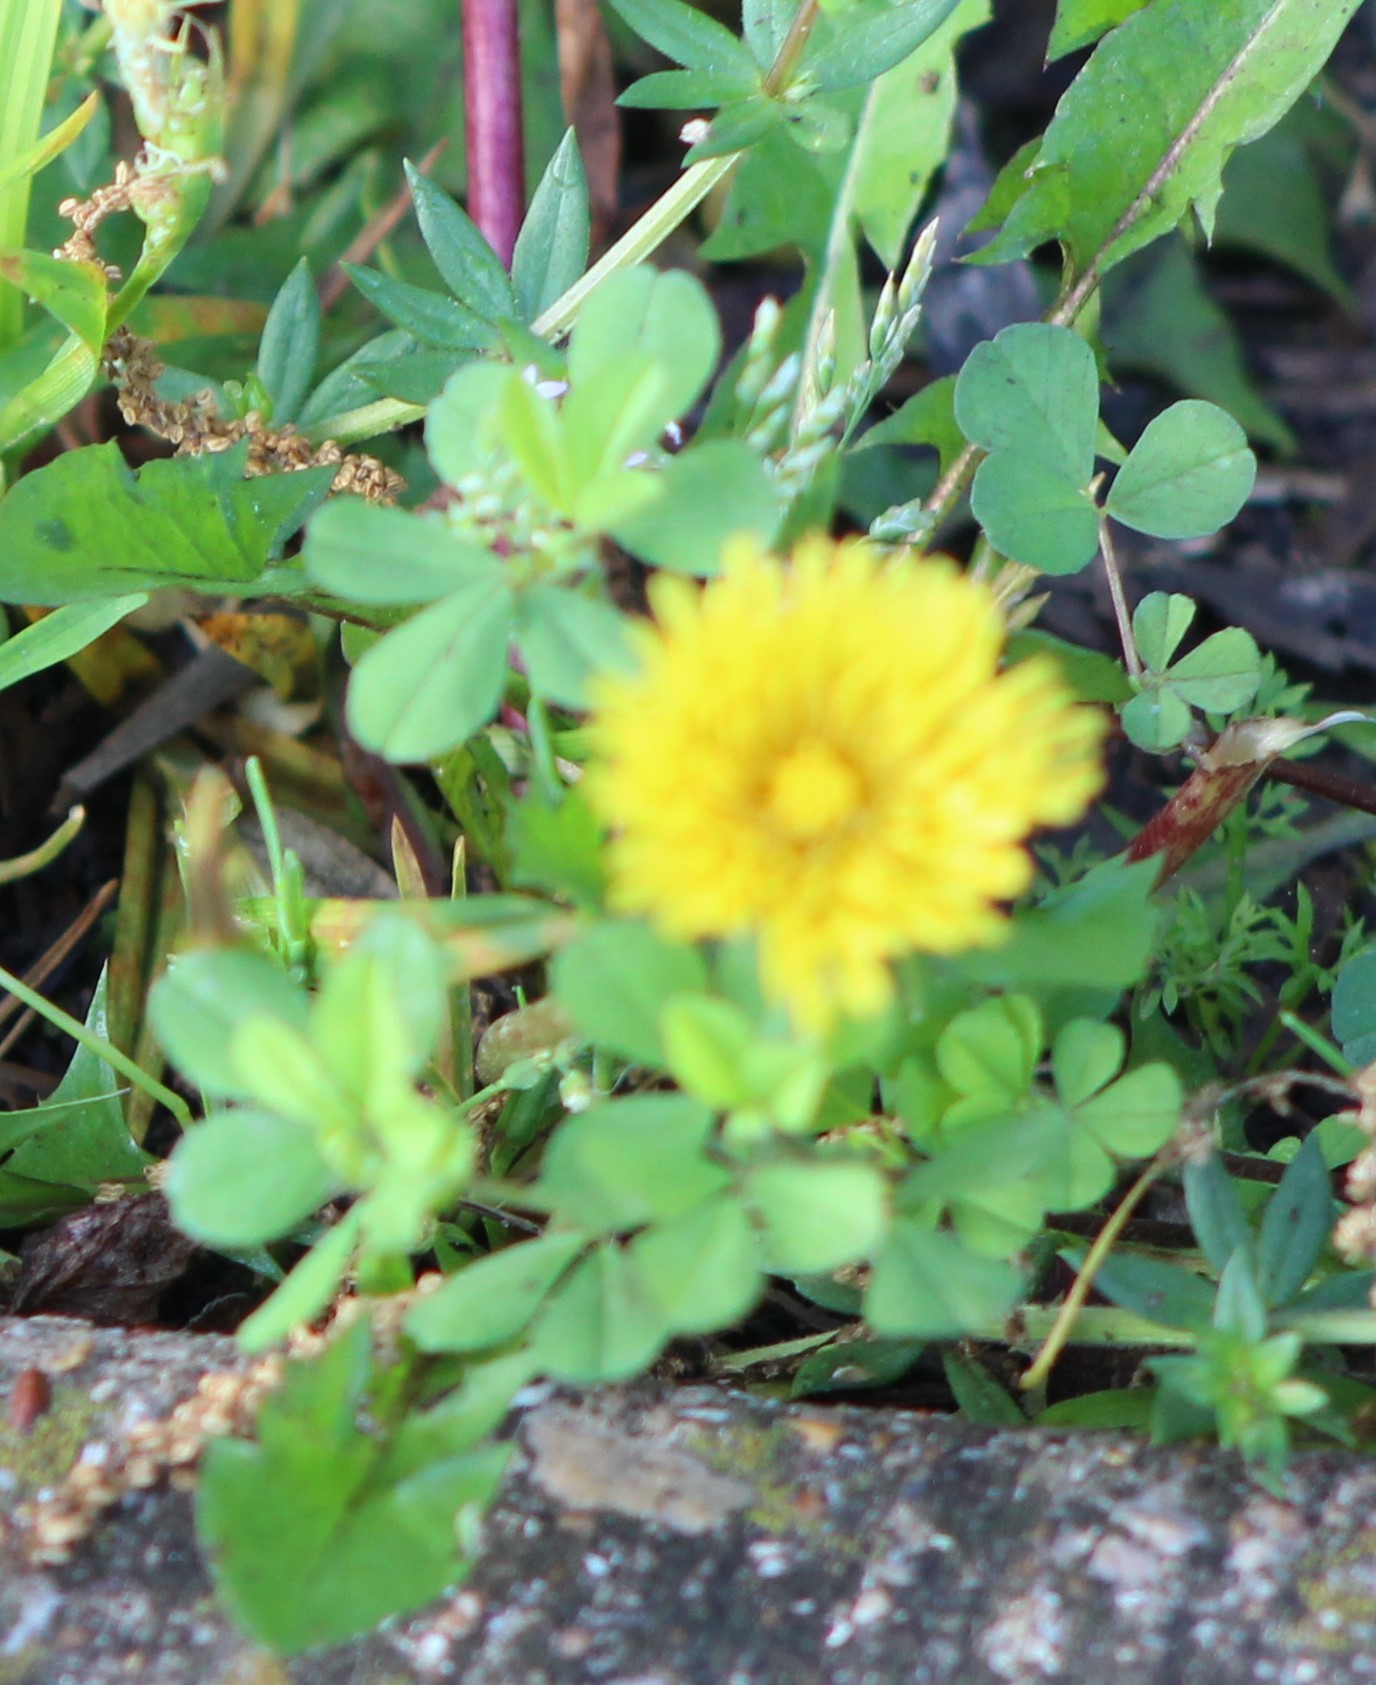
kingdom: Plantae
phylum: Tracheophyta
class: Magnoliopsida
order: Asterales
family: Asteraceae
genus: Taraxacum
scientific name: Taraxacum officinale
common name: Common dandelion
